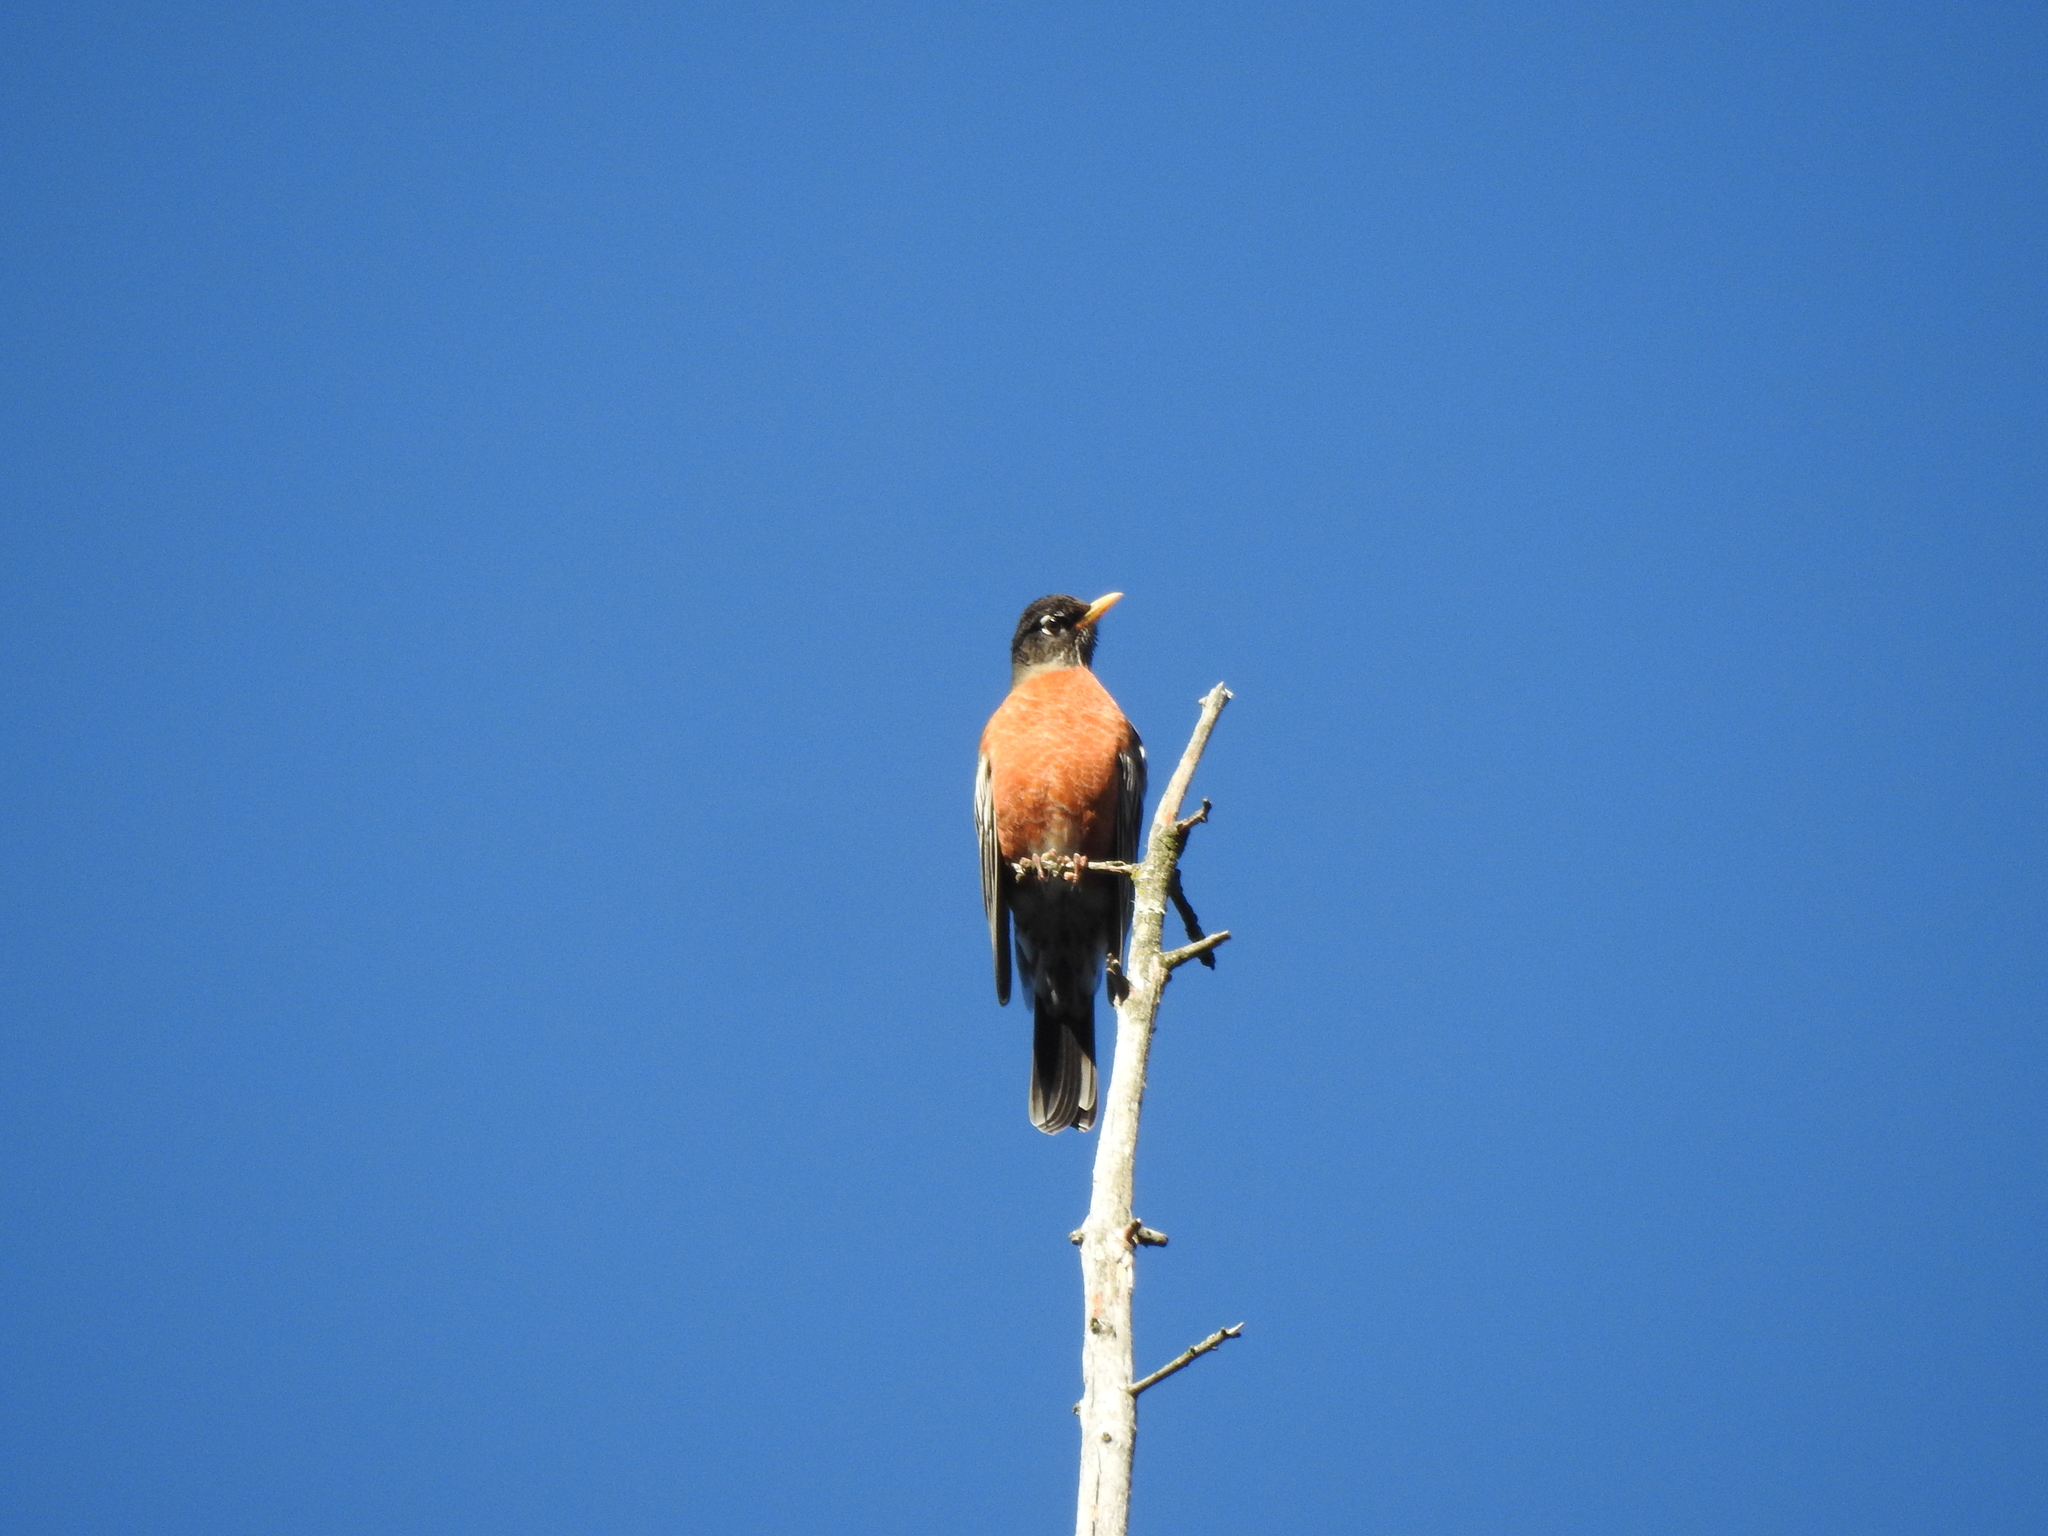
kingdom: Animalia
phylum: Chordata
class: Aves
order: Passeriformes
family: Turdidae
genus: Turdus
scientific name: Turdus migratorius
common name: American robin
